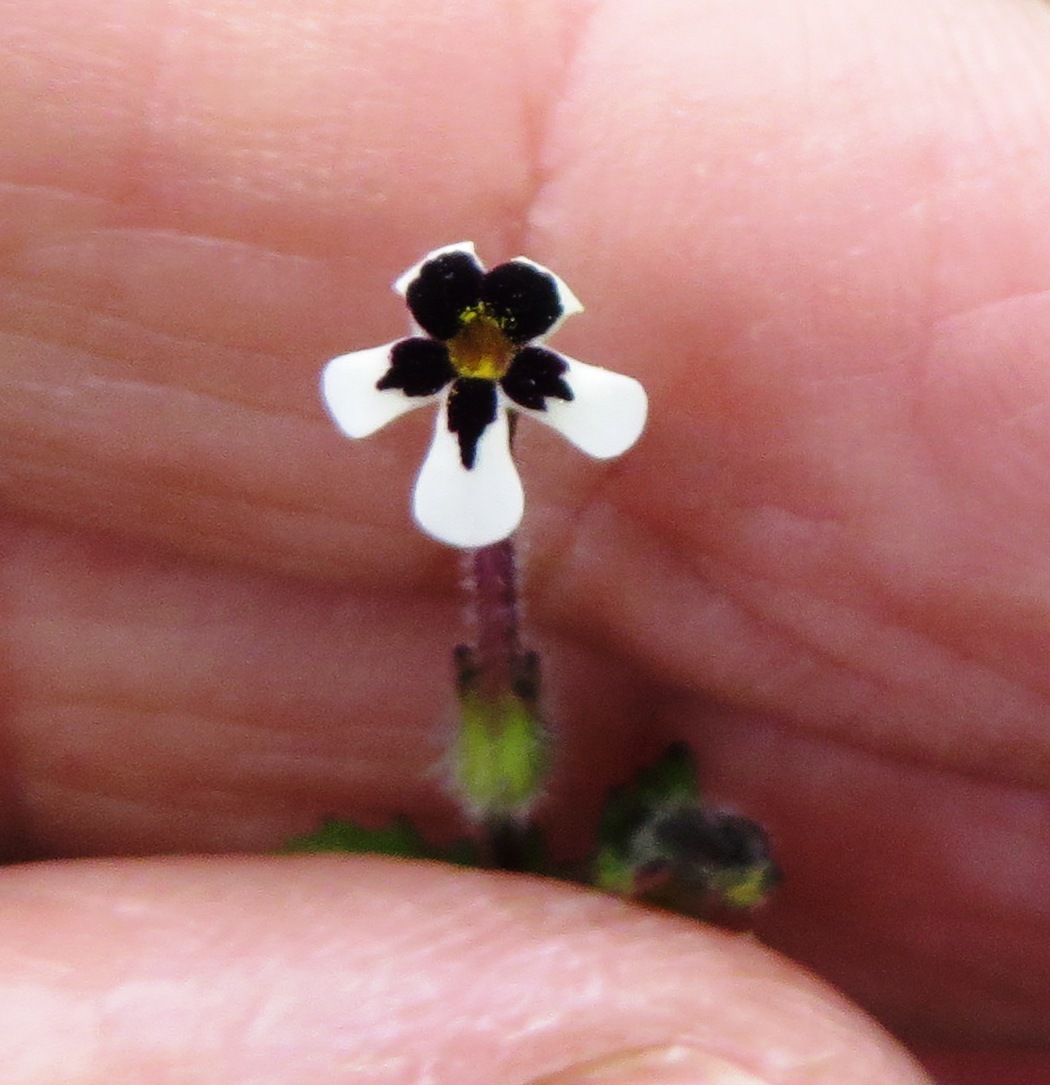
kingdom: Plantae
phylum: Tracheophyta
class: Magnoliopsida
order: Lamiales
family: Scrophulariaceae
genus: Lyperia
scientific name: Lyperia antirrhinoides
